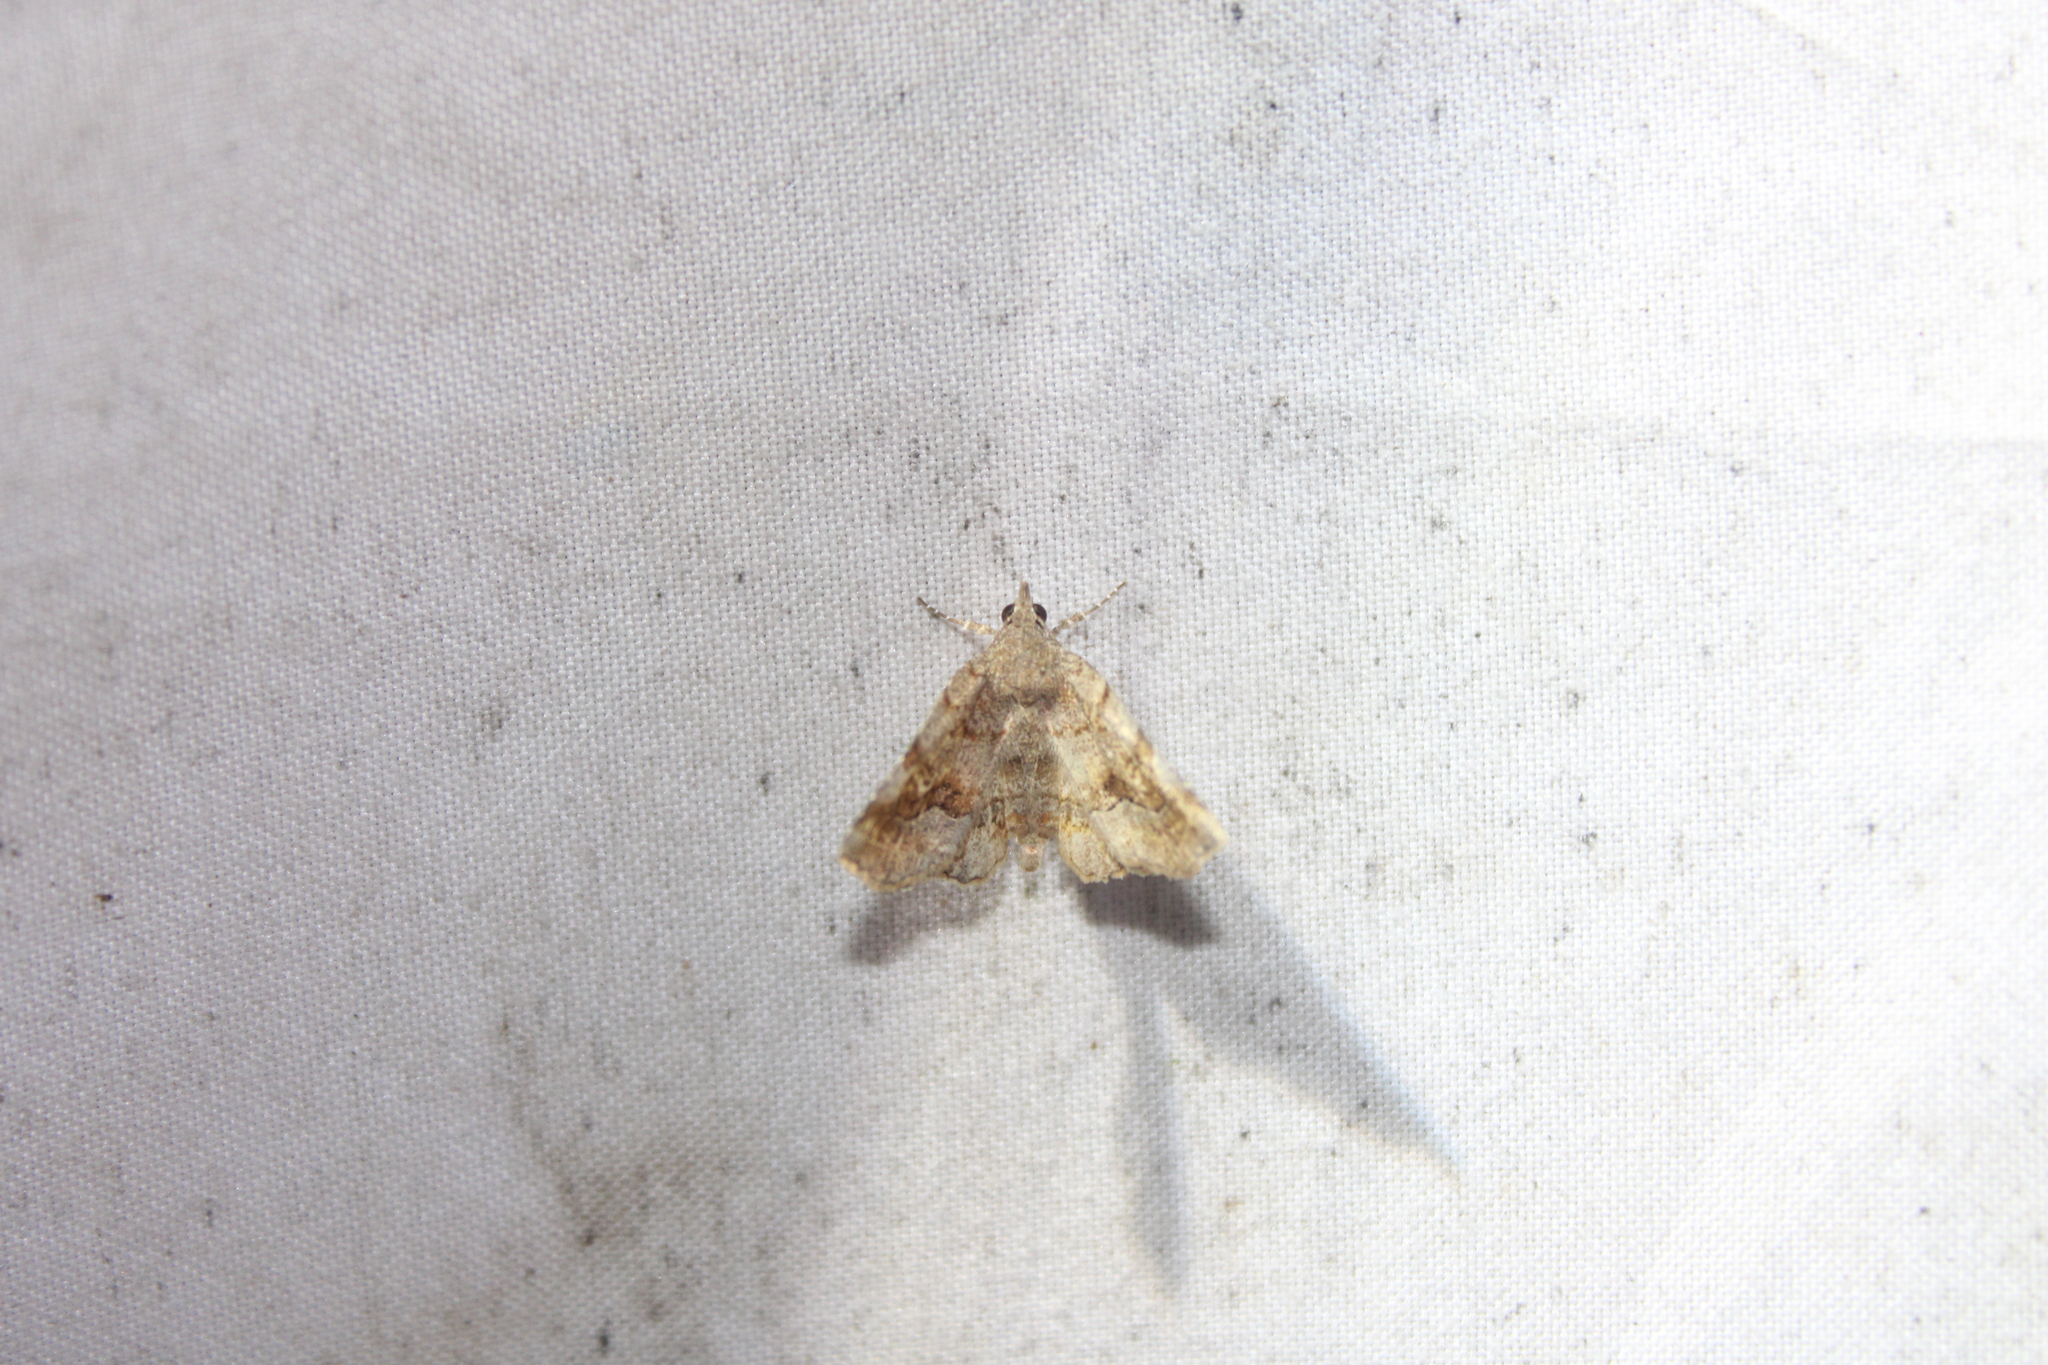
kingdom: Animalia
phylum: Arthropoda
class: Insecta
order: Lepidoptera
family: Erebidae
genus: Pangrapta
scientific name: Pangrapta decoralis
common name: Decorated owlet
